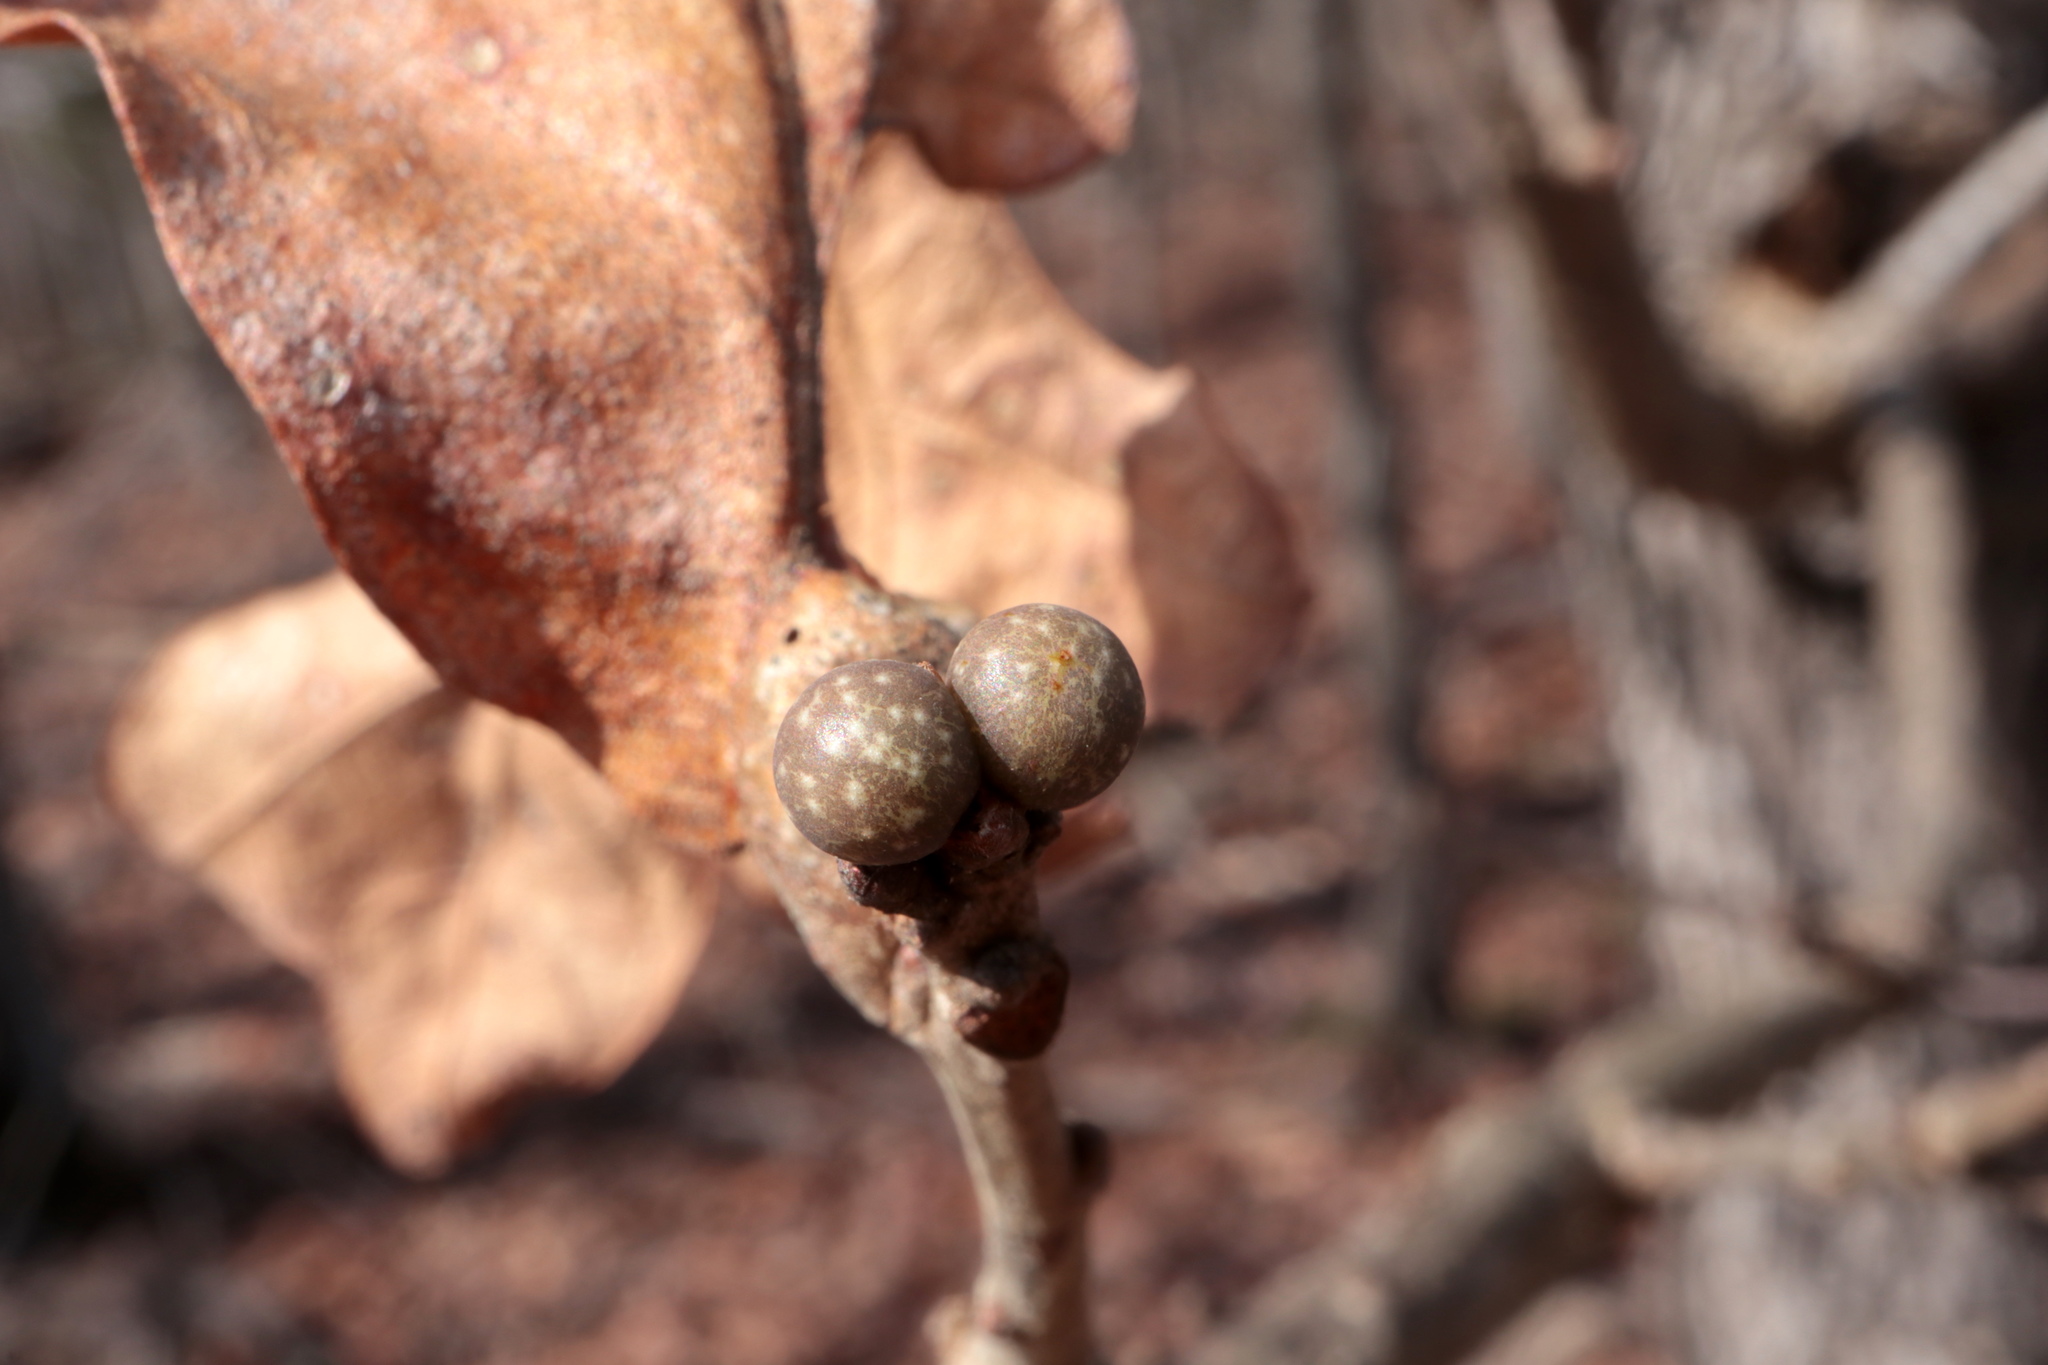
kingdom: Animalia
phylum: Arthropoda
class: Insecta
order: Hymenoptera
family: Cynipidae
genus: Neuroterus
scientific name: Neuroterus
